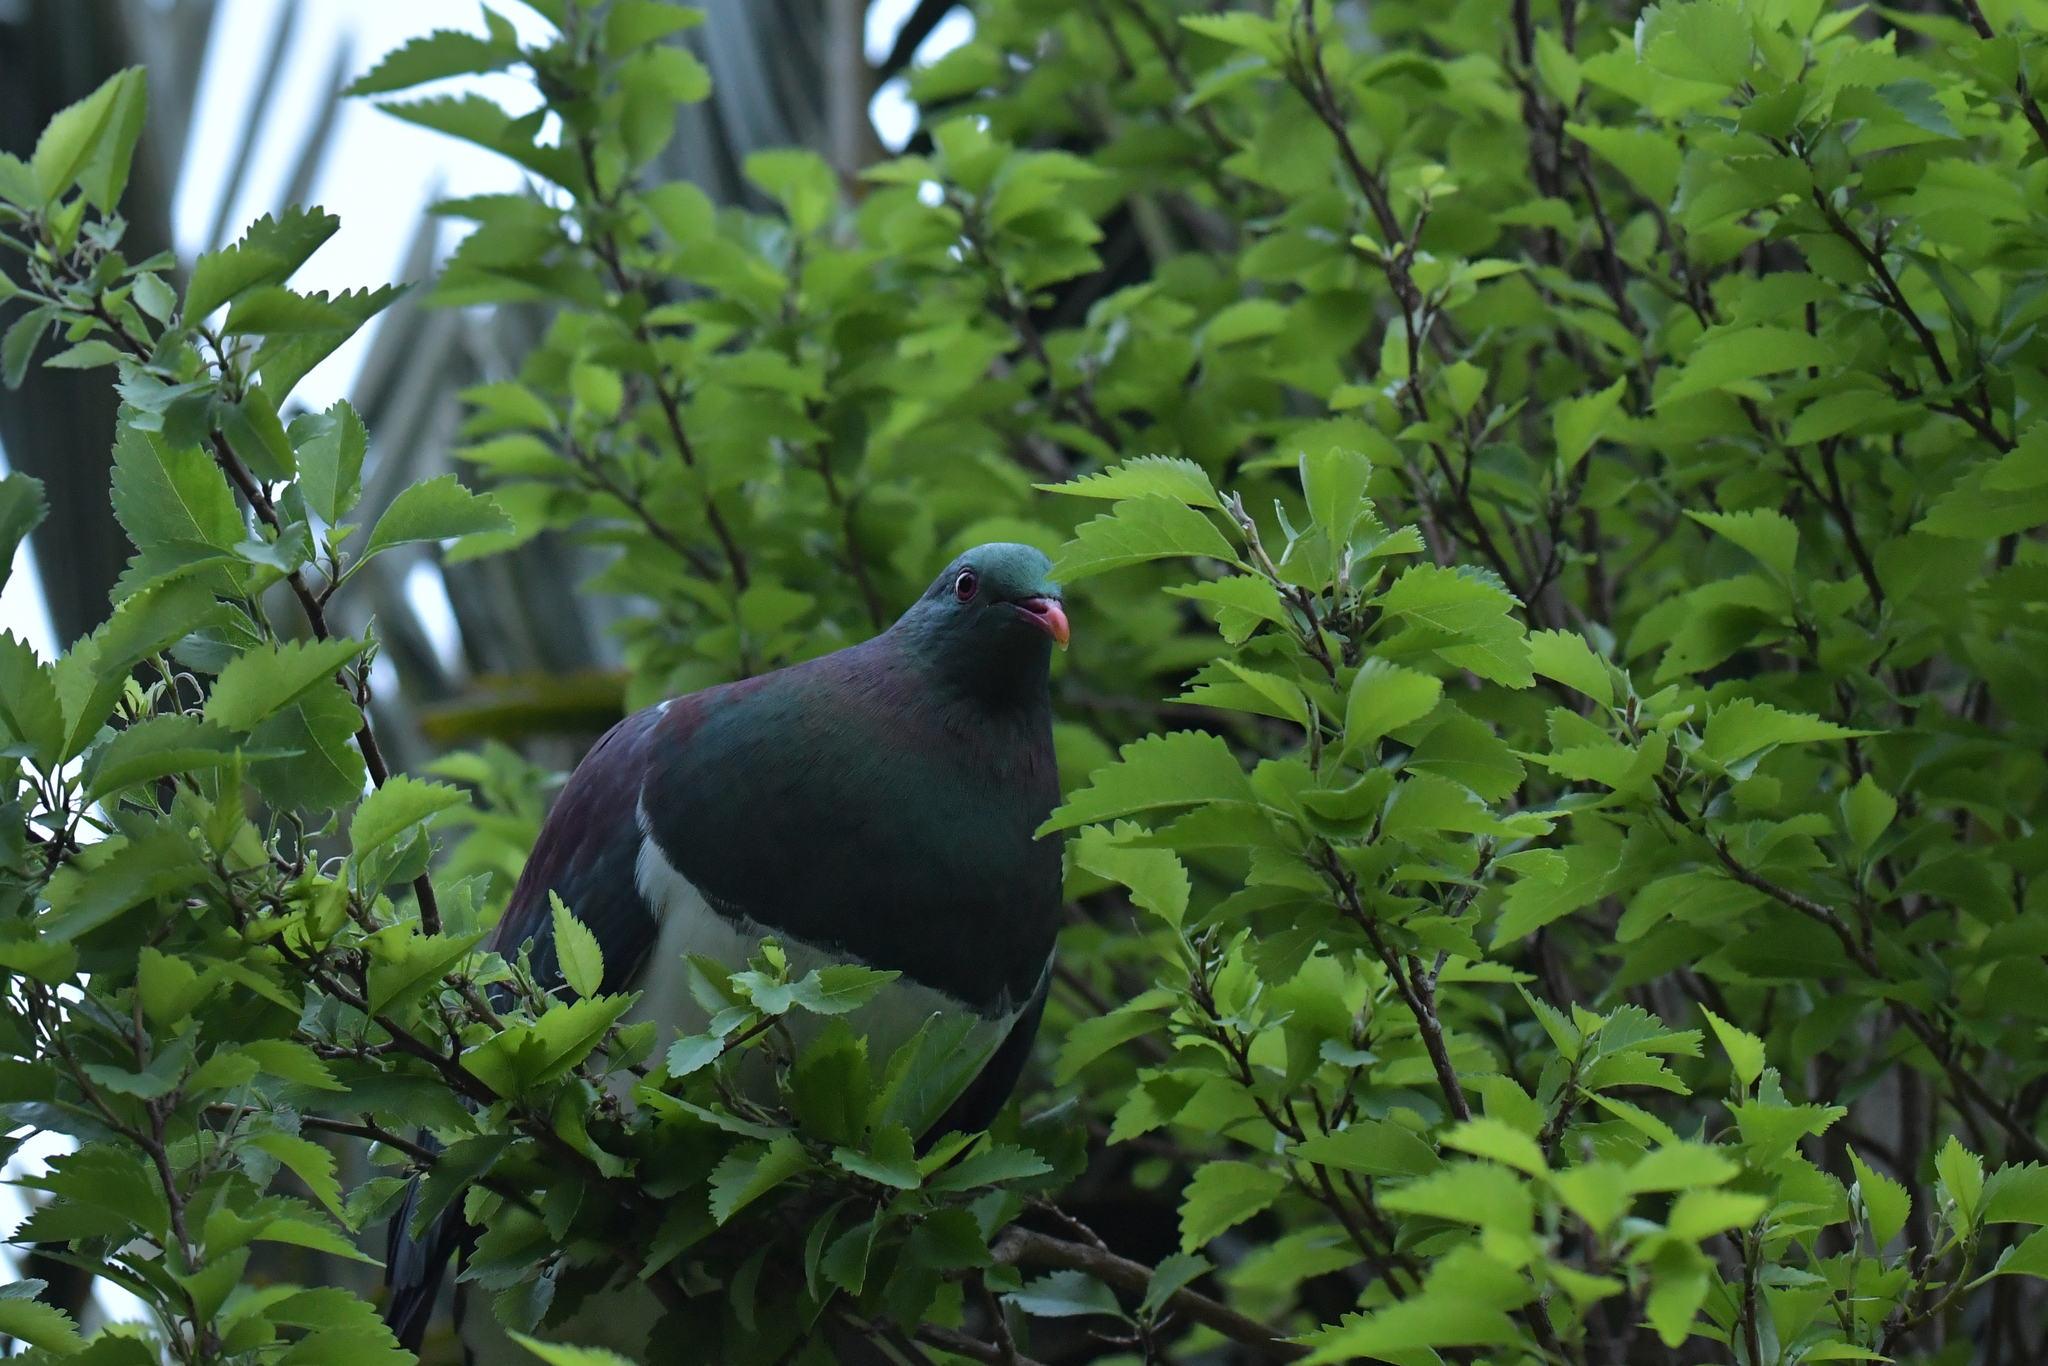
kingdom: Animalia
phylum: Chordata
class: Aves
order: Columbiformes
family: Columbidae
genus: Hemiphaga
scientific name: Hemiphaga novaeseelandiae
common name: New zealand pigeon
